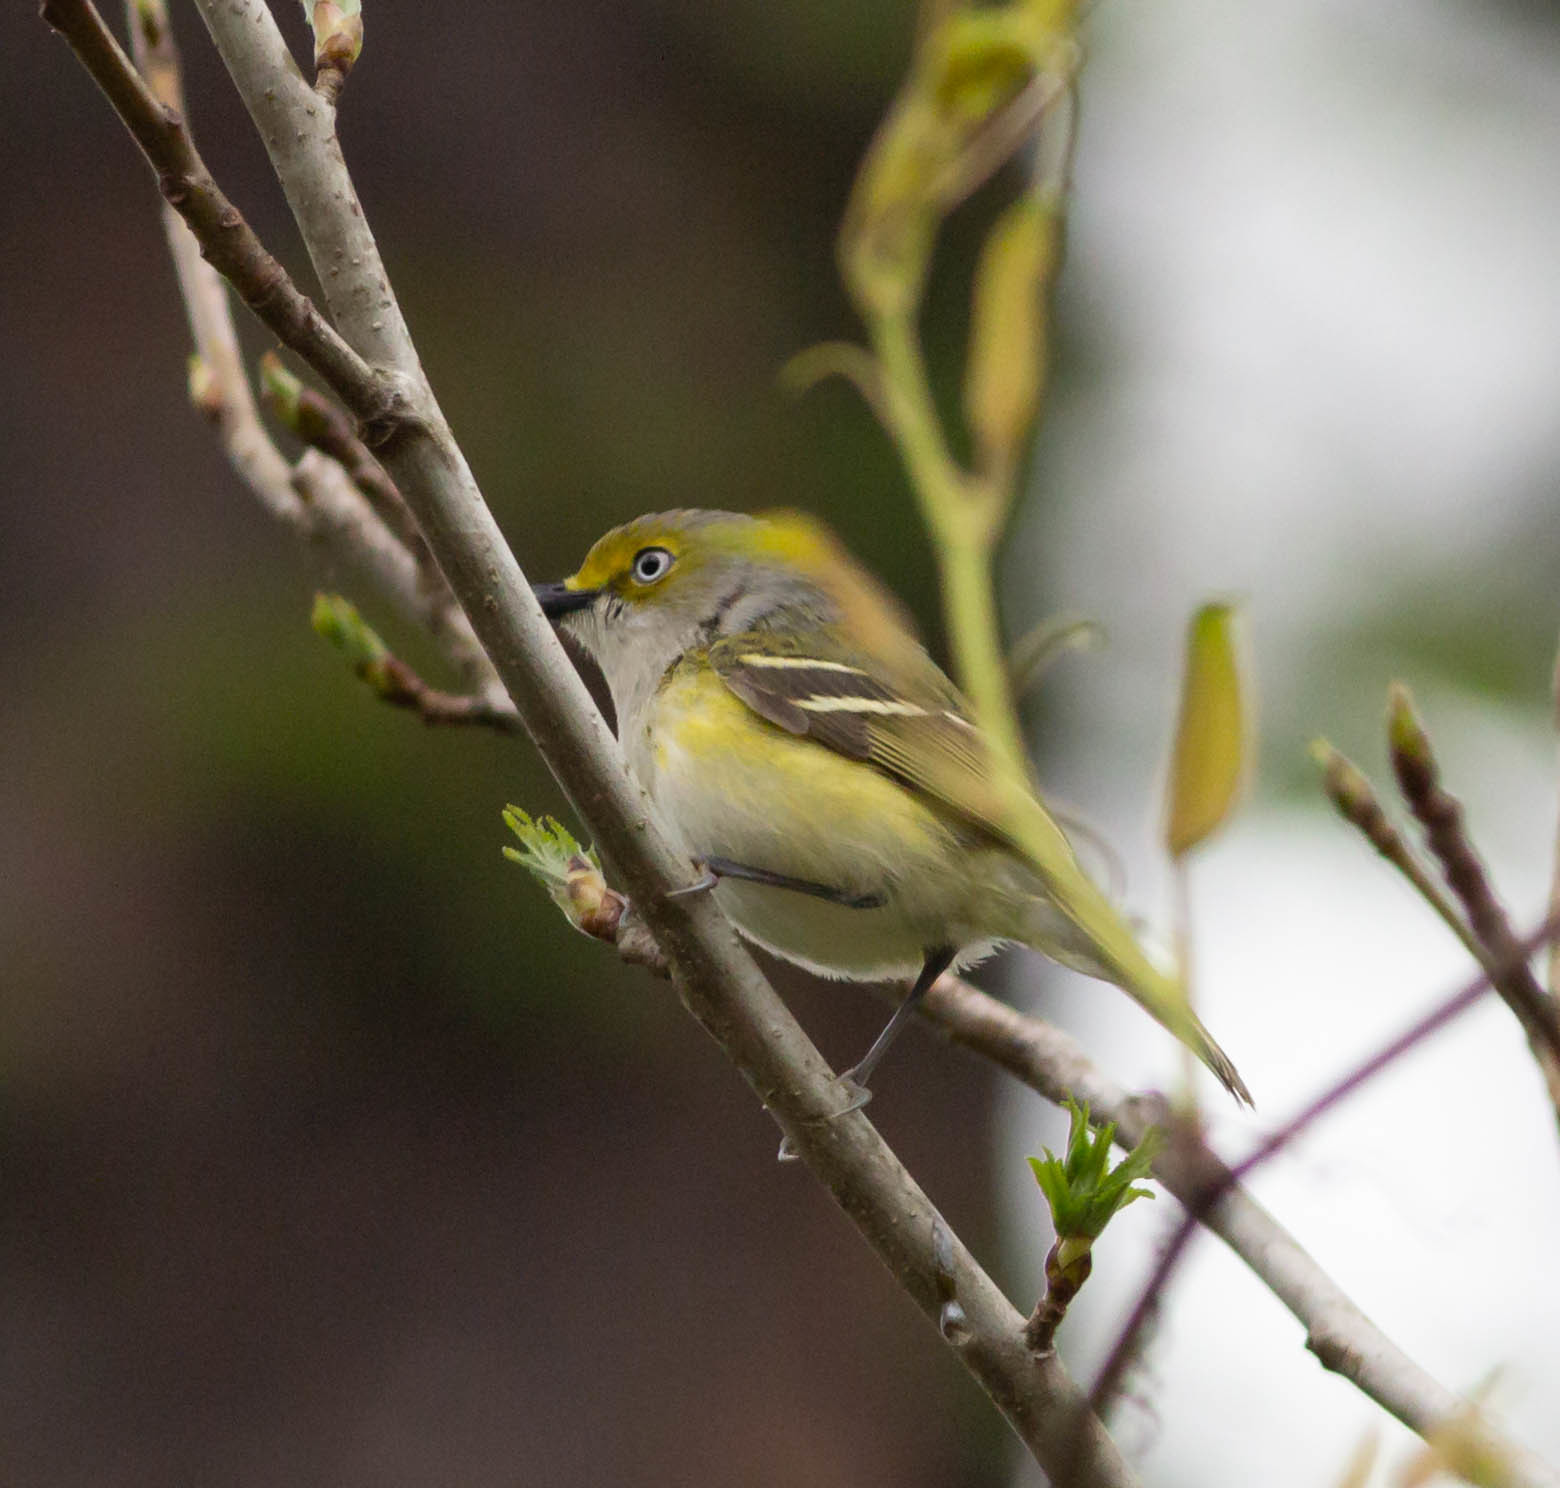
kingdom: Animalia
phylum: Chordata
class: Aves
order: Passeriformes
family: Vireonidae
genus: Vireo
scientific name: Vireo griseus
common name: White-eyed vireo
